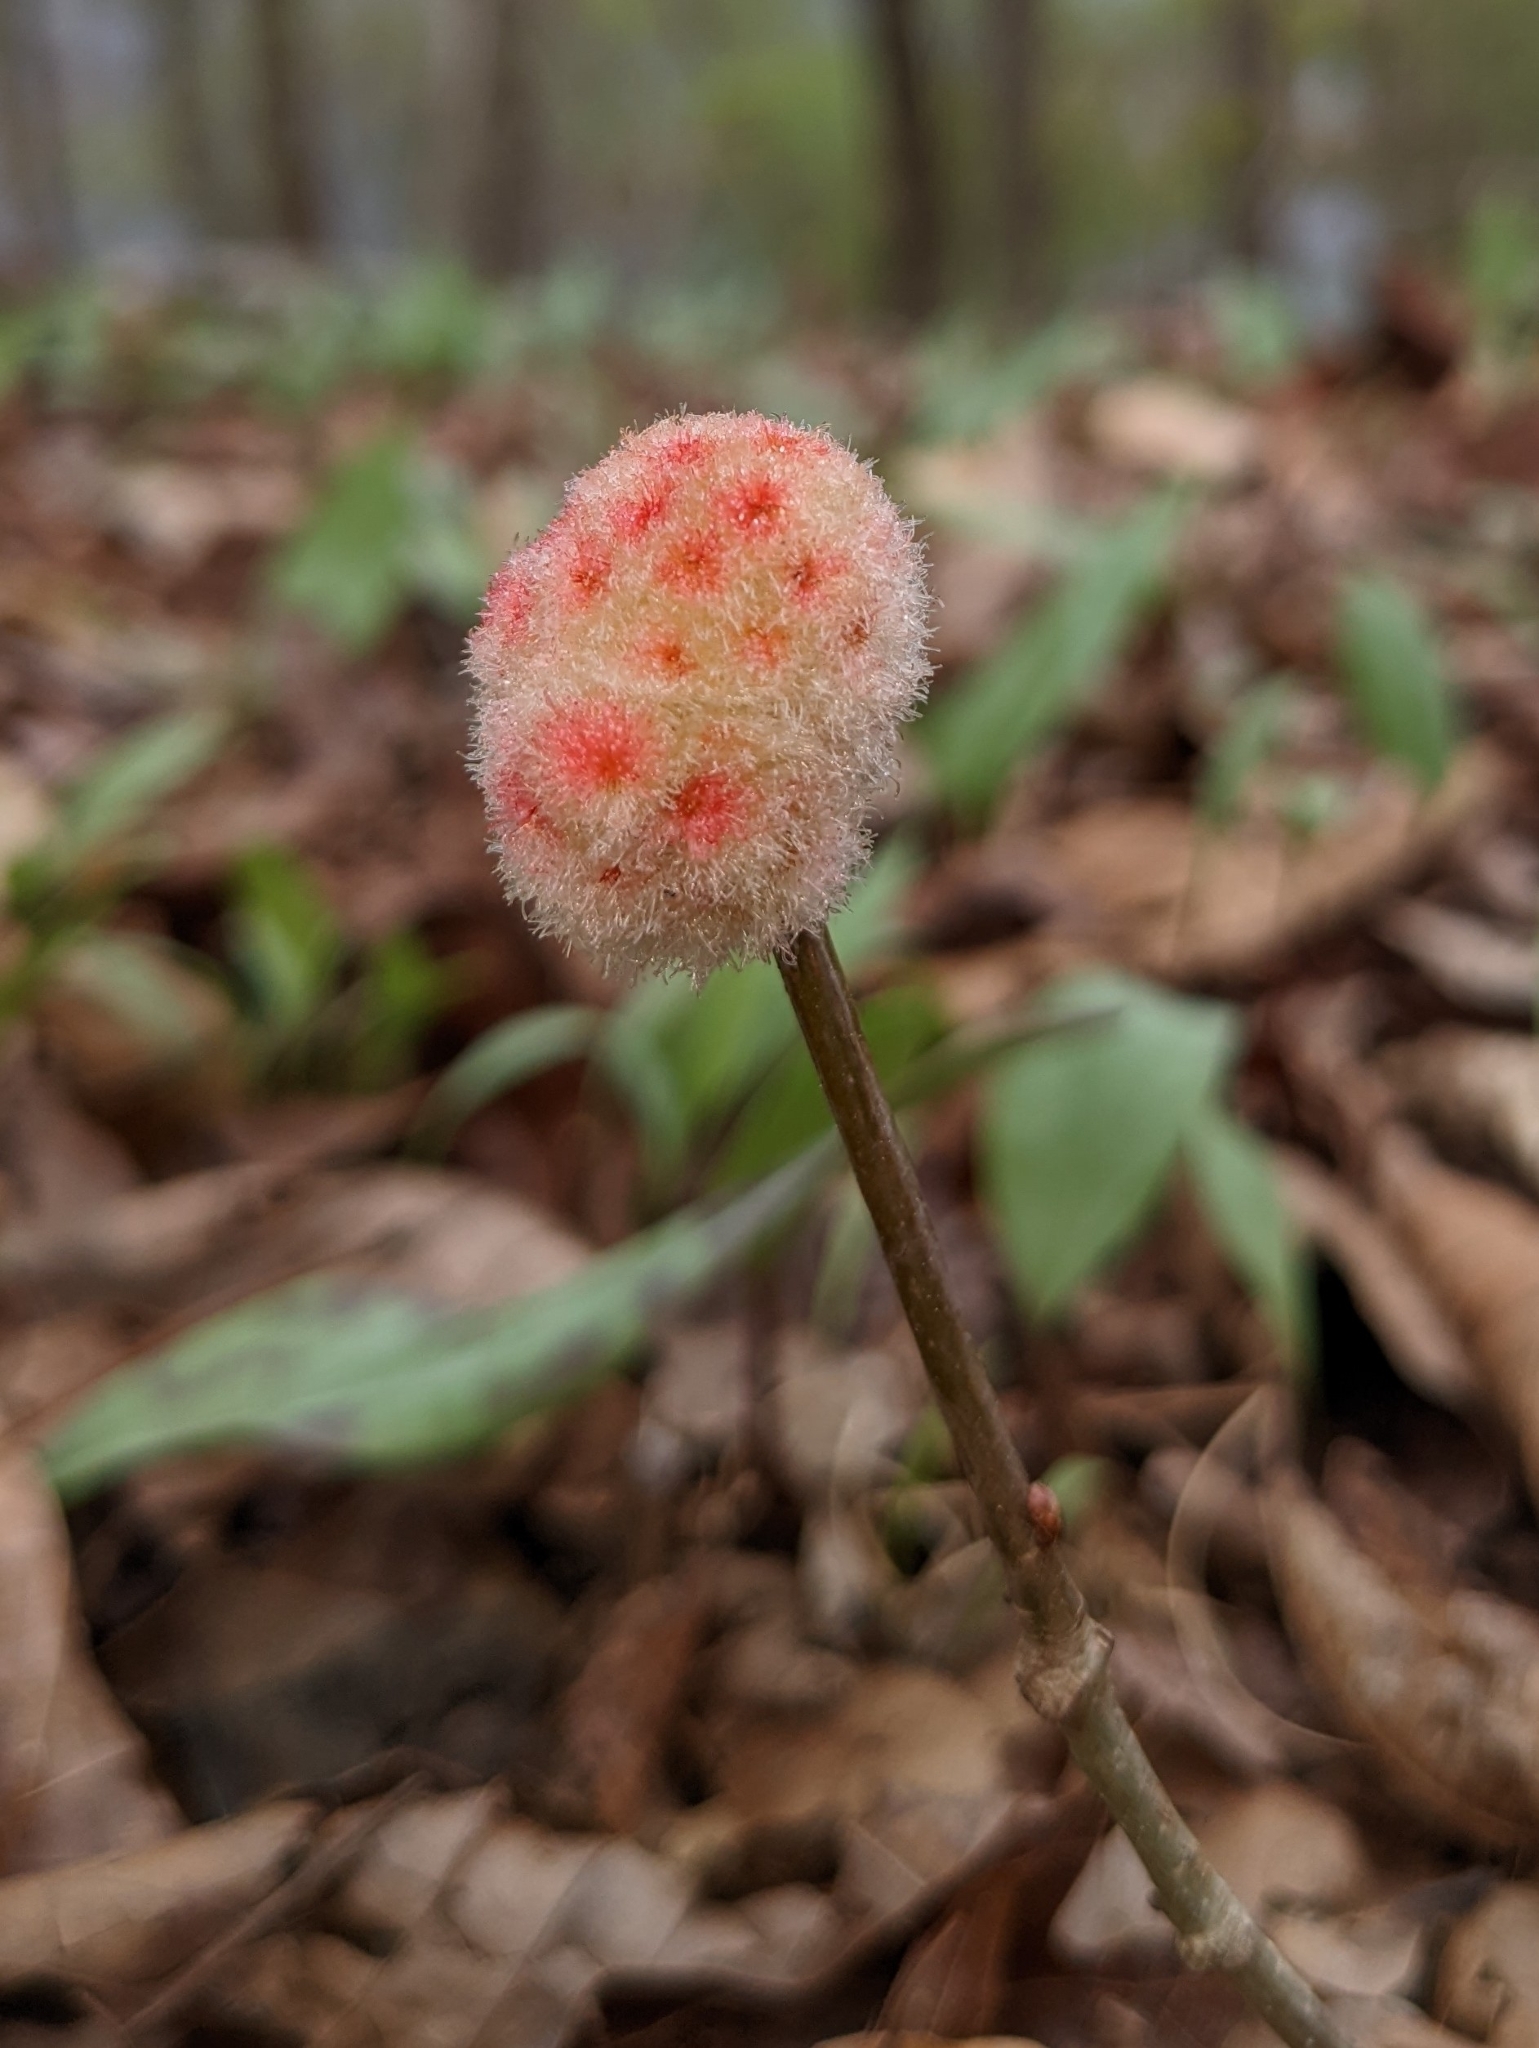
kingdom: Animalia
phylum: Arthropoda
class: Insecta
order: Hymenoptera
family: Cynipidae
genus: Callirhytis
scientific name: Callirhytis
